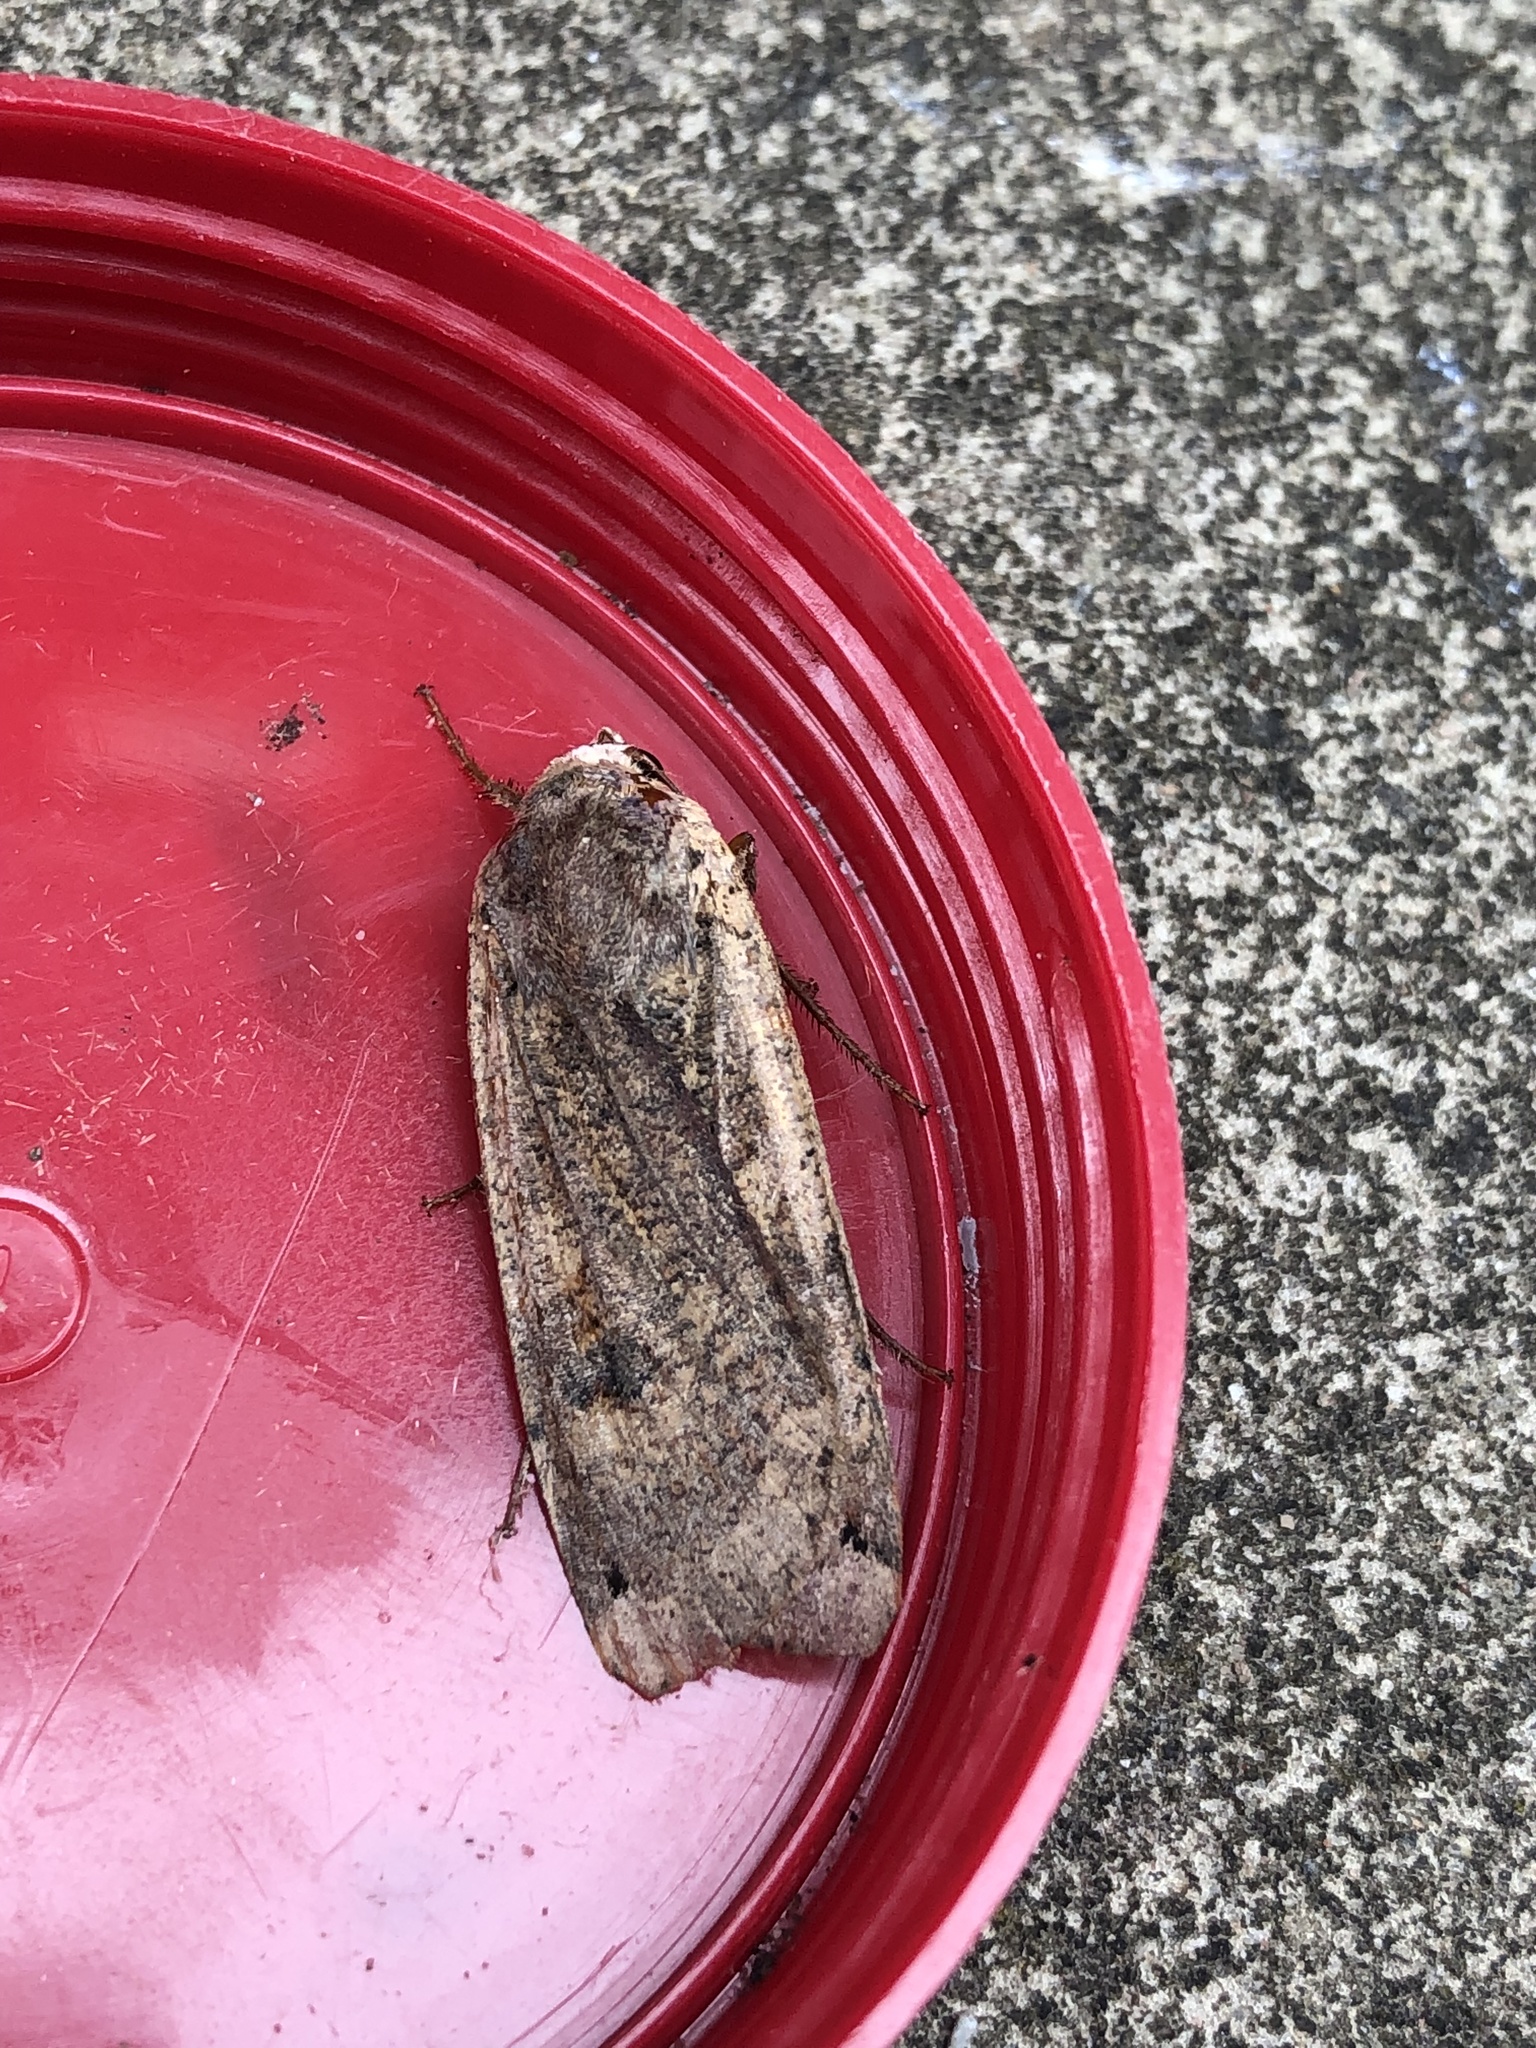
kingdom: Animalia
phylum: Arthropoda
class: Insecta
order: Lepidoptera
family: Noctuidae
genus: Noctua
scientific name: Noctua pronuba
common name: Large yellow underwing
